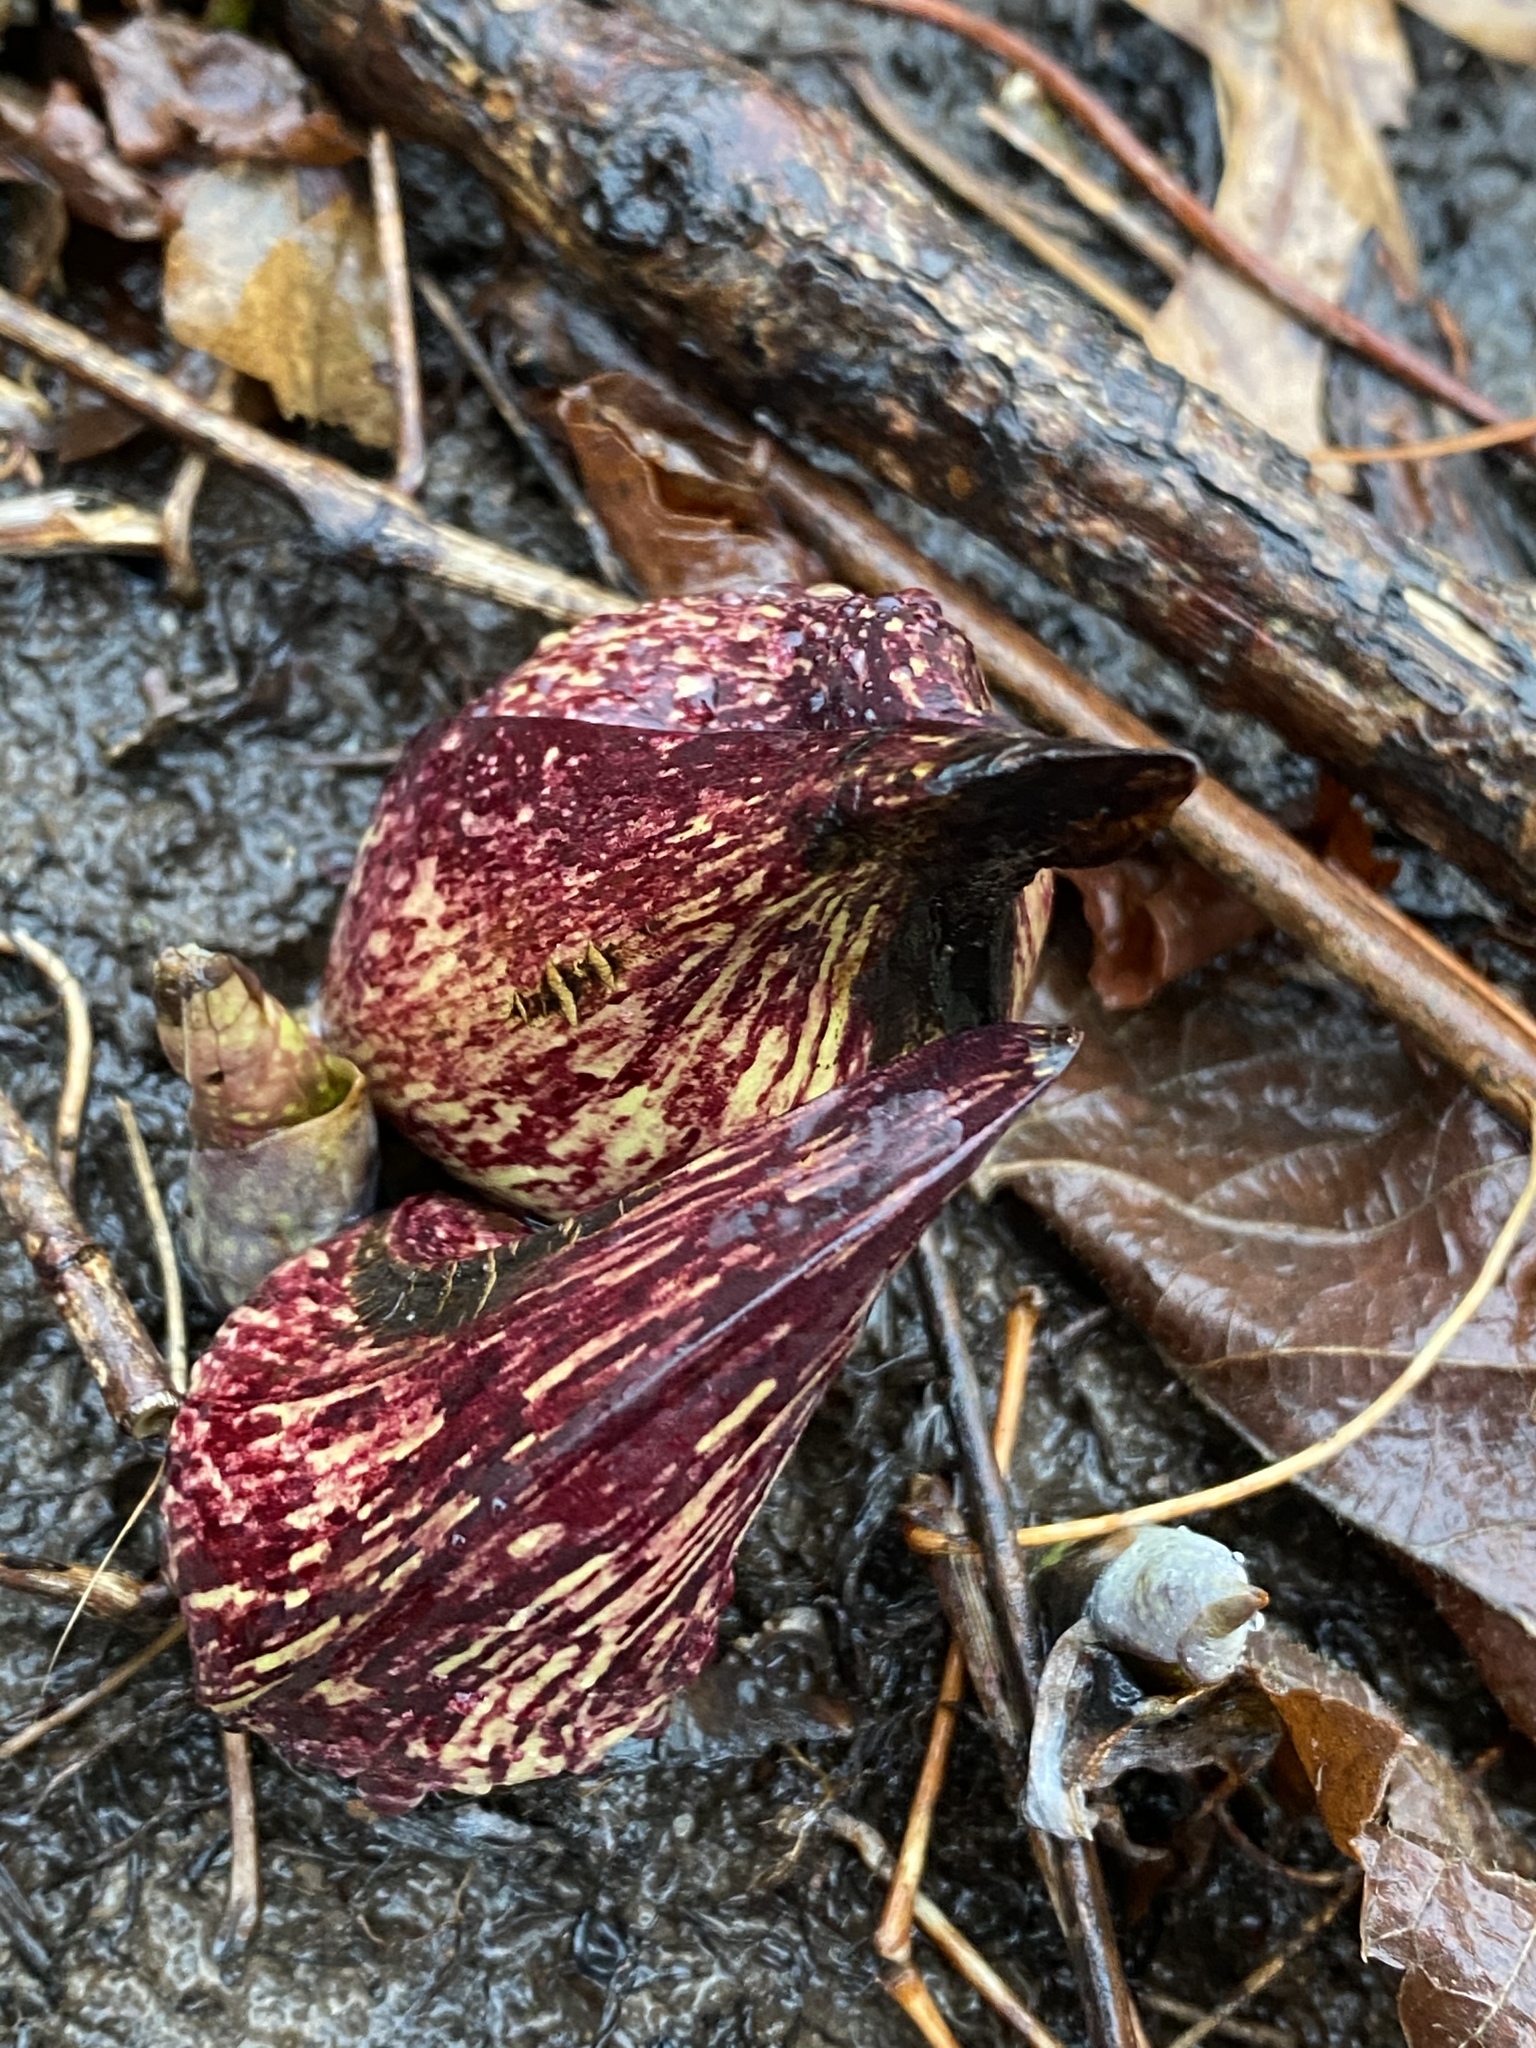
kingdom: Plantae
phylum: Tracheophyta
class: Liliopsida
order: Alismatales
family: Araceae
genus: Symplocarpus
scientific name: Symplocarpus foetidus
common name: Eastern skunk cabbage
